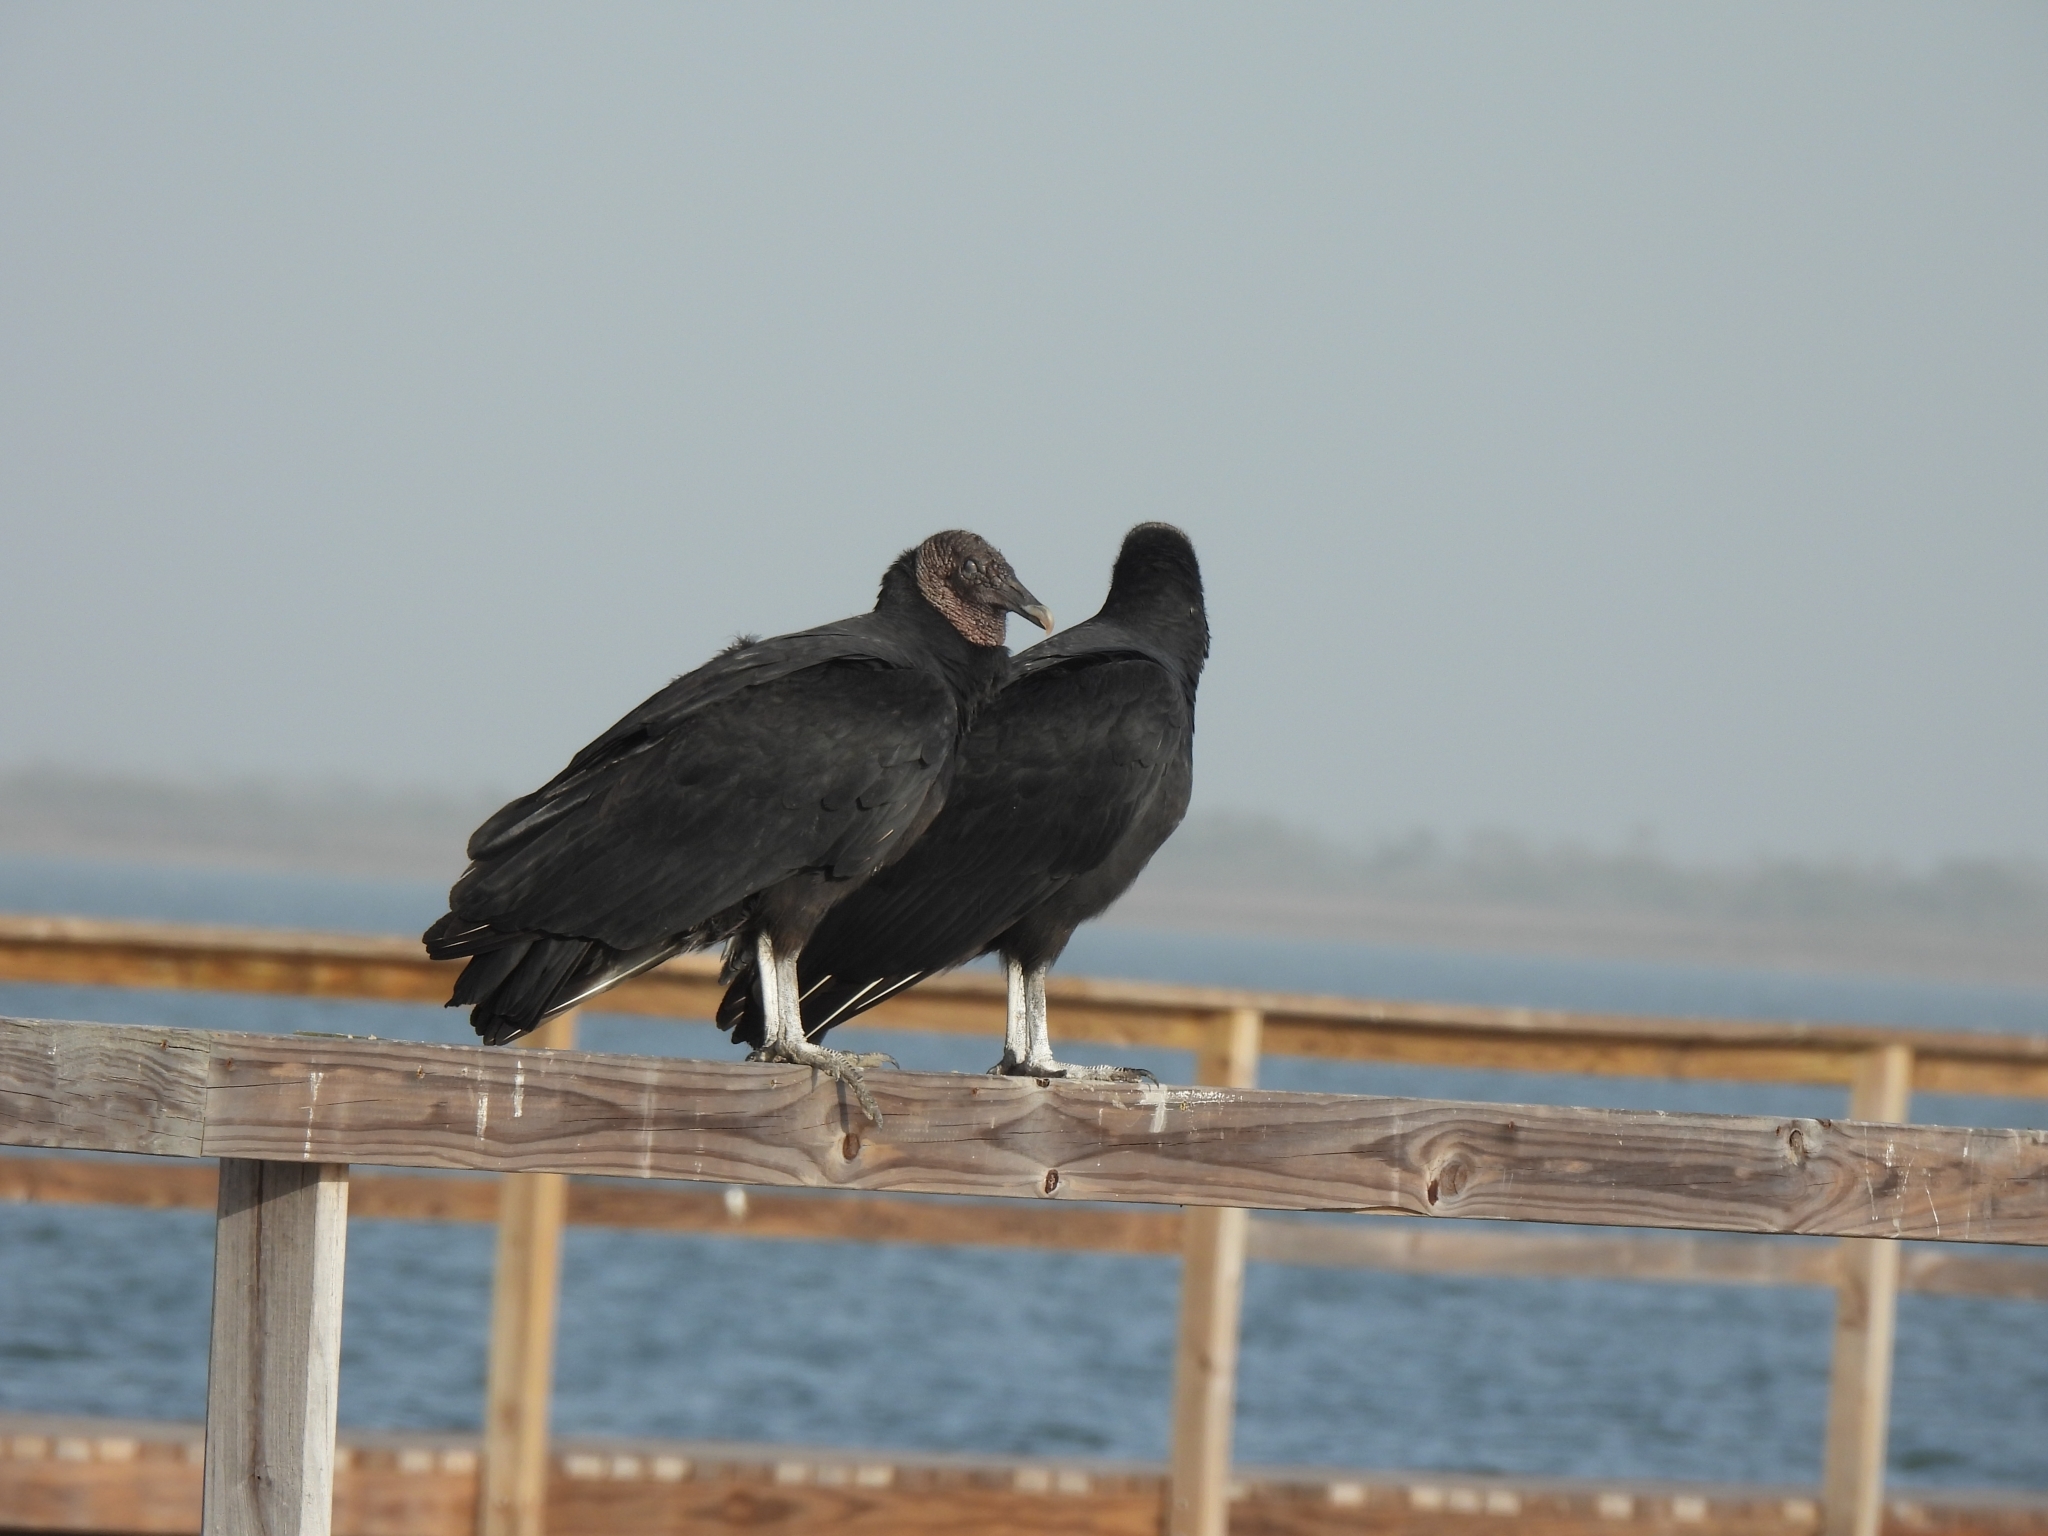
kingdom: Animalia
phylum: Chordata
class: Aves
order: Accipitriformes
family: Cathartidae
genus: Coragyps
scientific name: Coragyps atratus
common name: Black vulture
